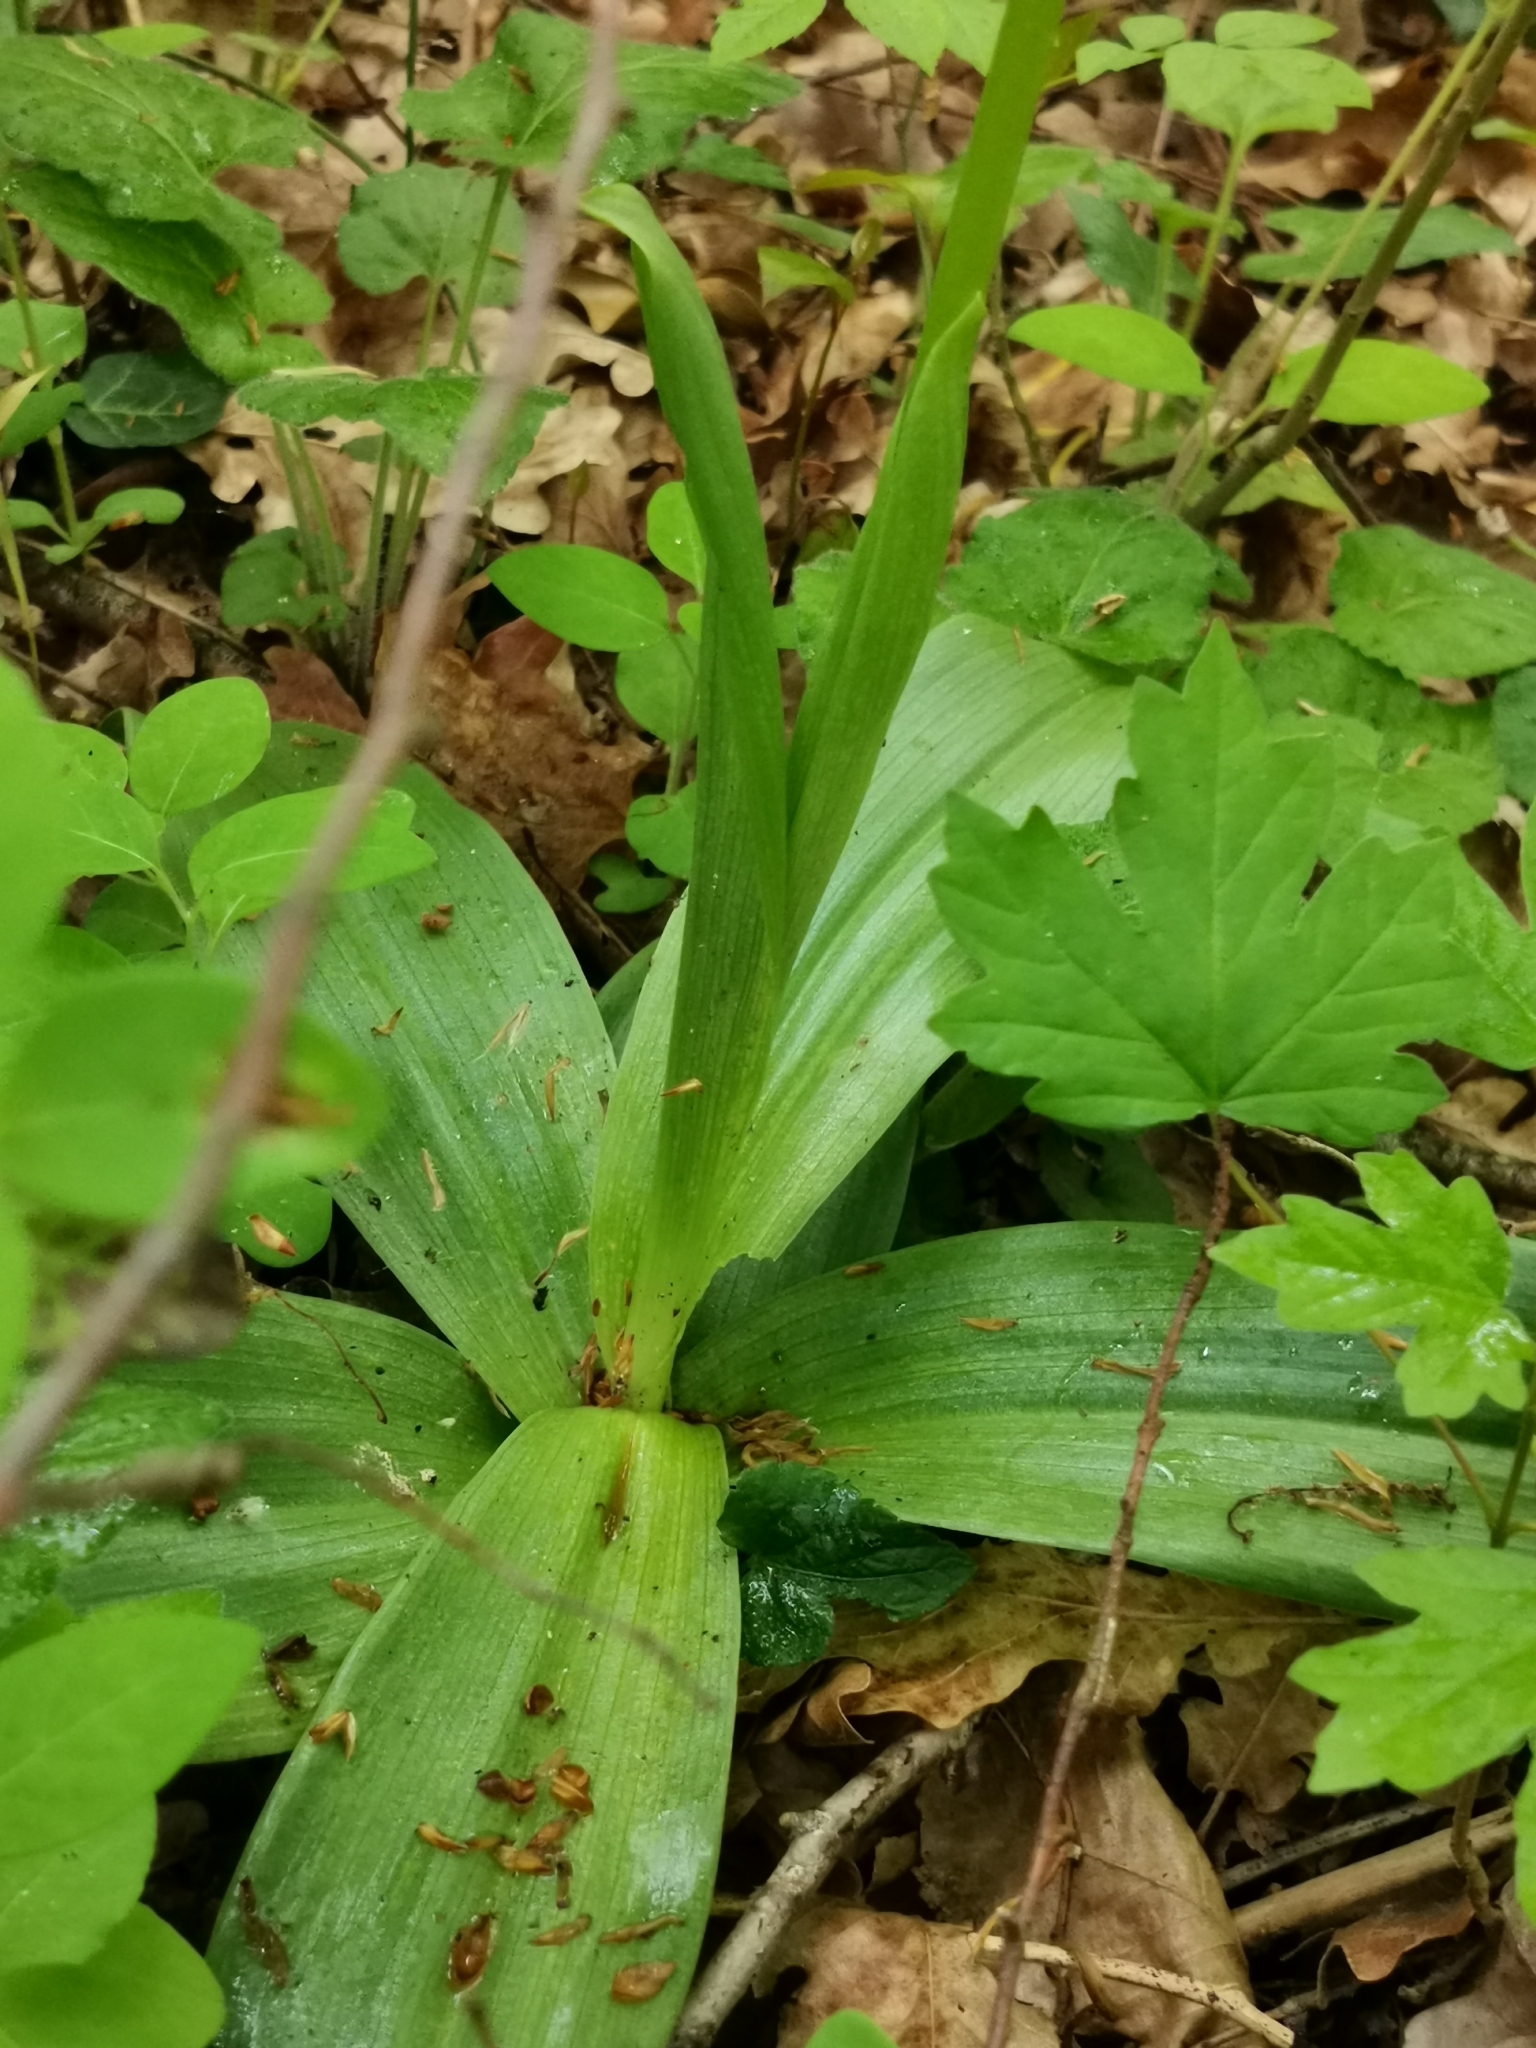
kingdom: Plantae
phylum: Tracheophyta
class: Liliopsida
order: Asparagales
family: Orchidaceae
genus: Orchis
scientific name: Orchis purpurea
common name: Lady orchid
